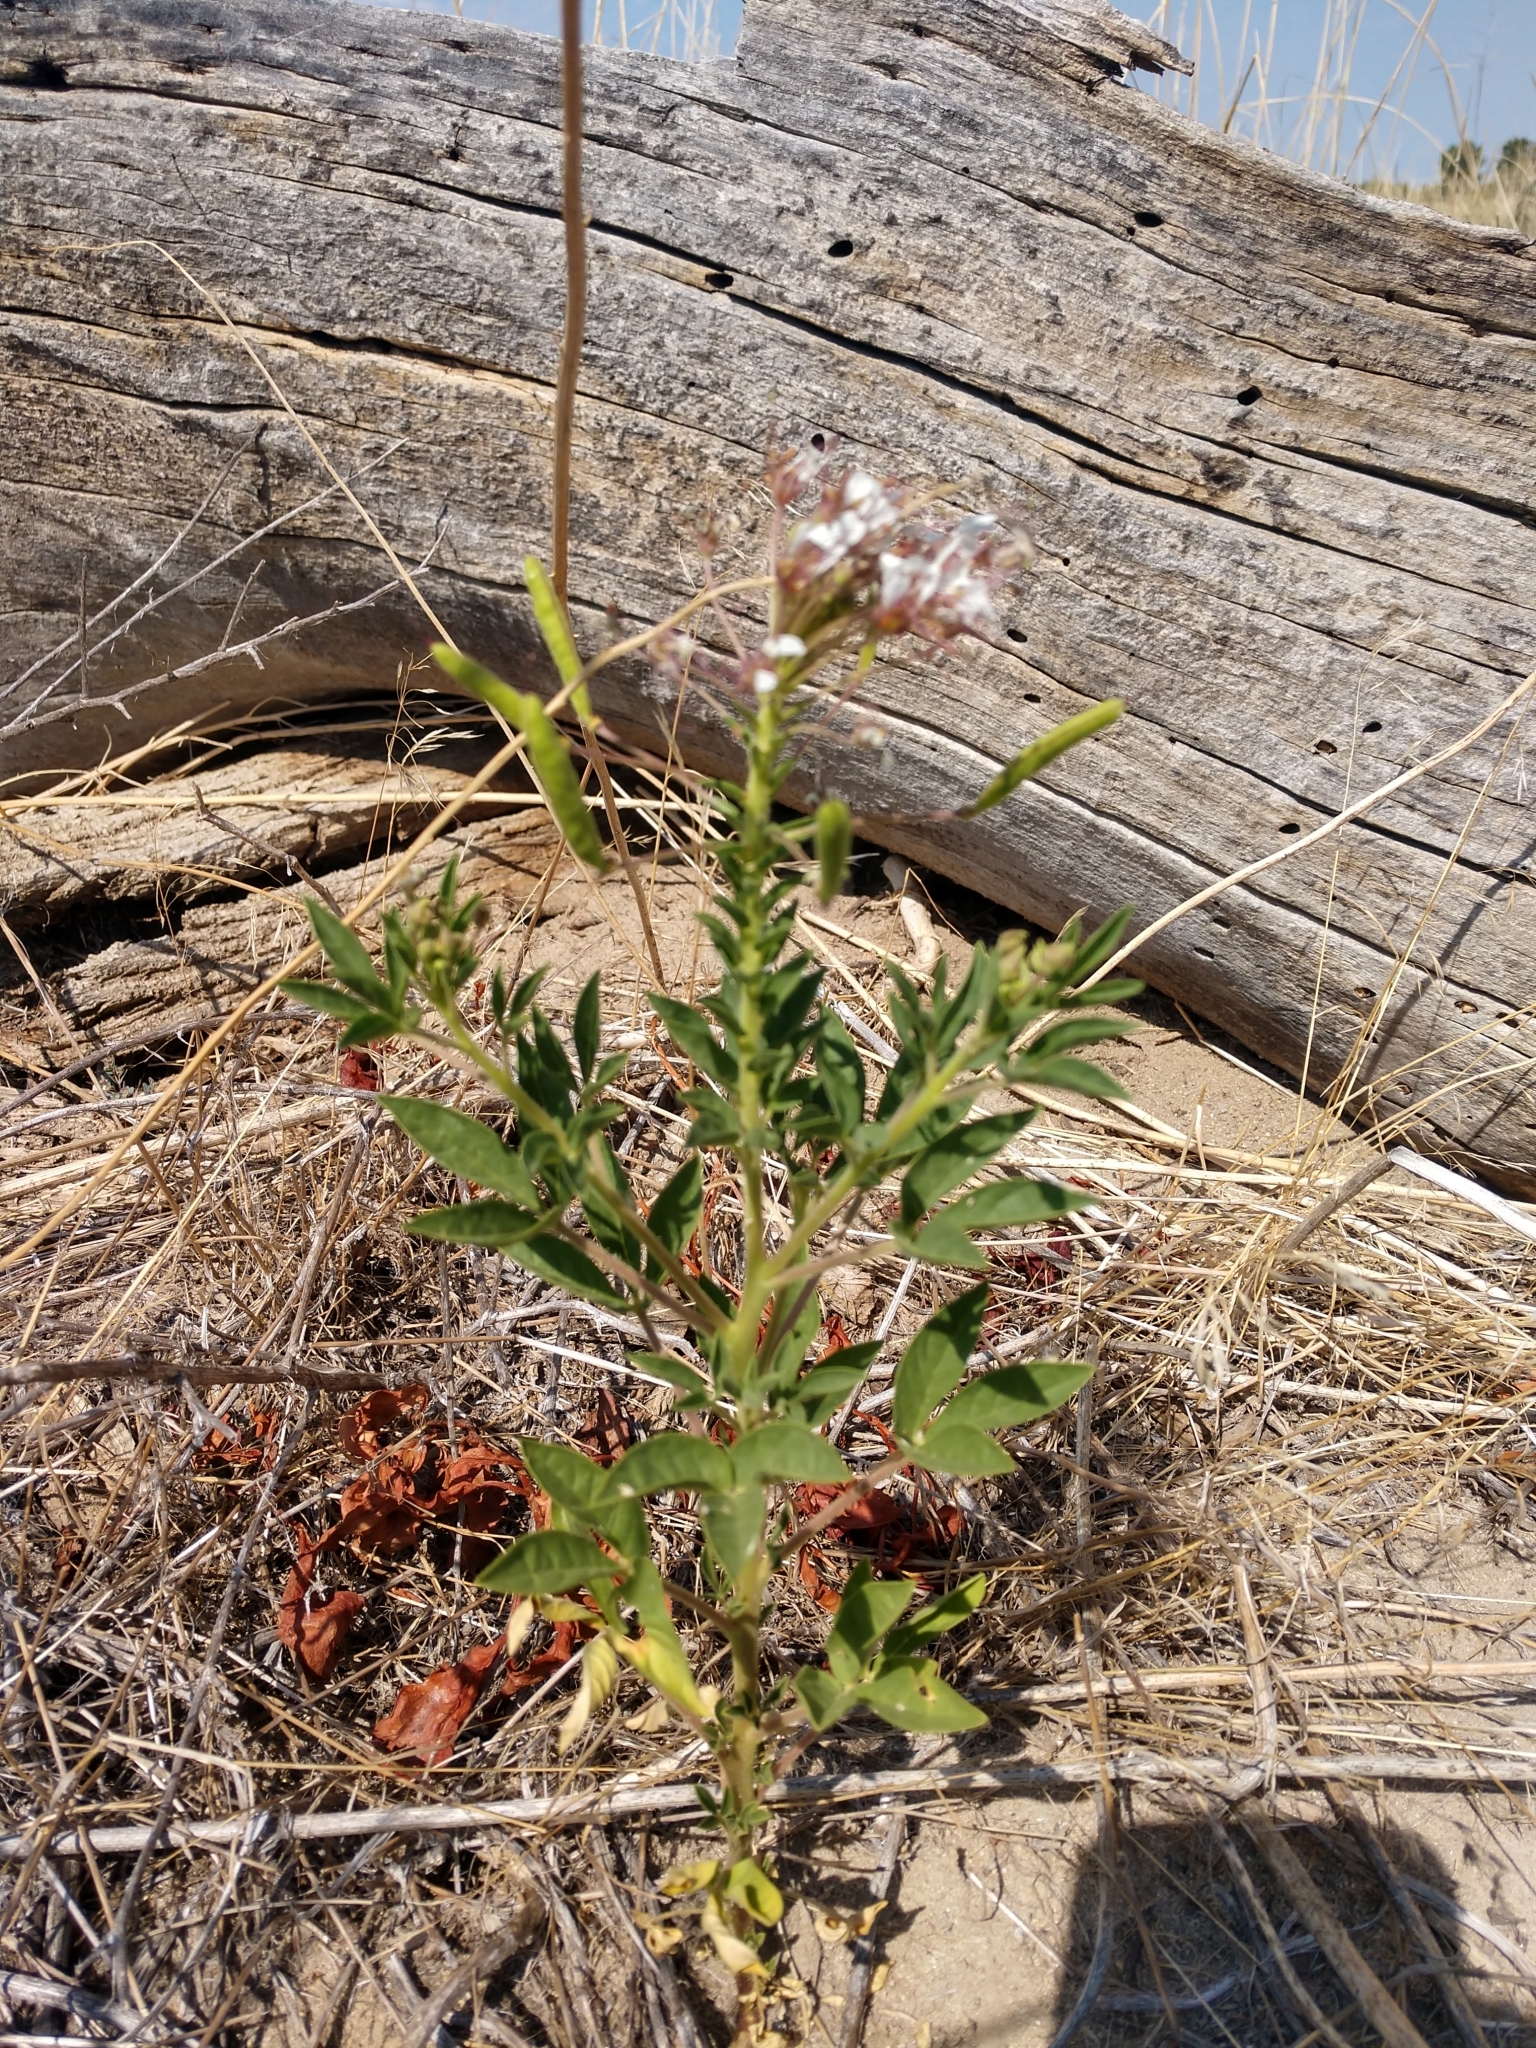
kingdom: Plantae
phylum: Tracheophyta
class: Magnoliopsida
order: Brassicales
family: Cleomaceae
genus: Polanisia
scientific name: Polanisia dodecandra
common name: Clammyweed
